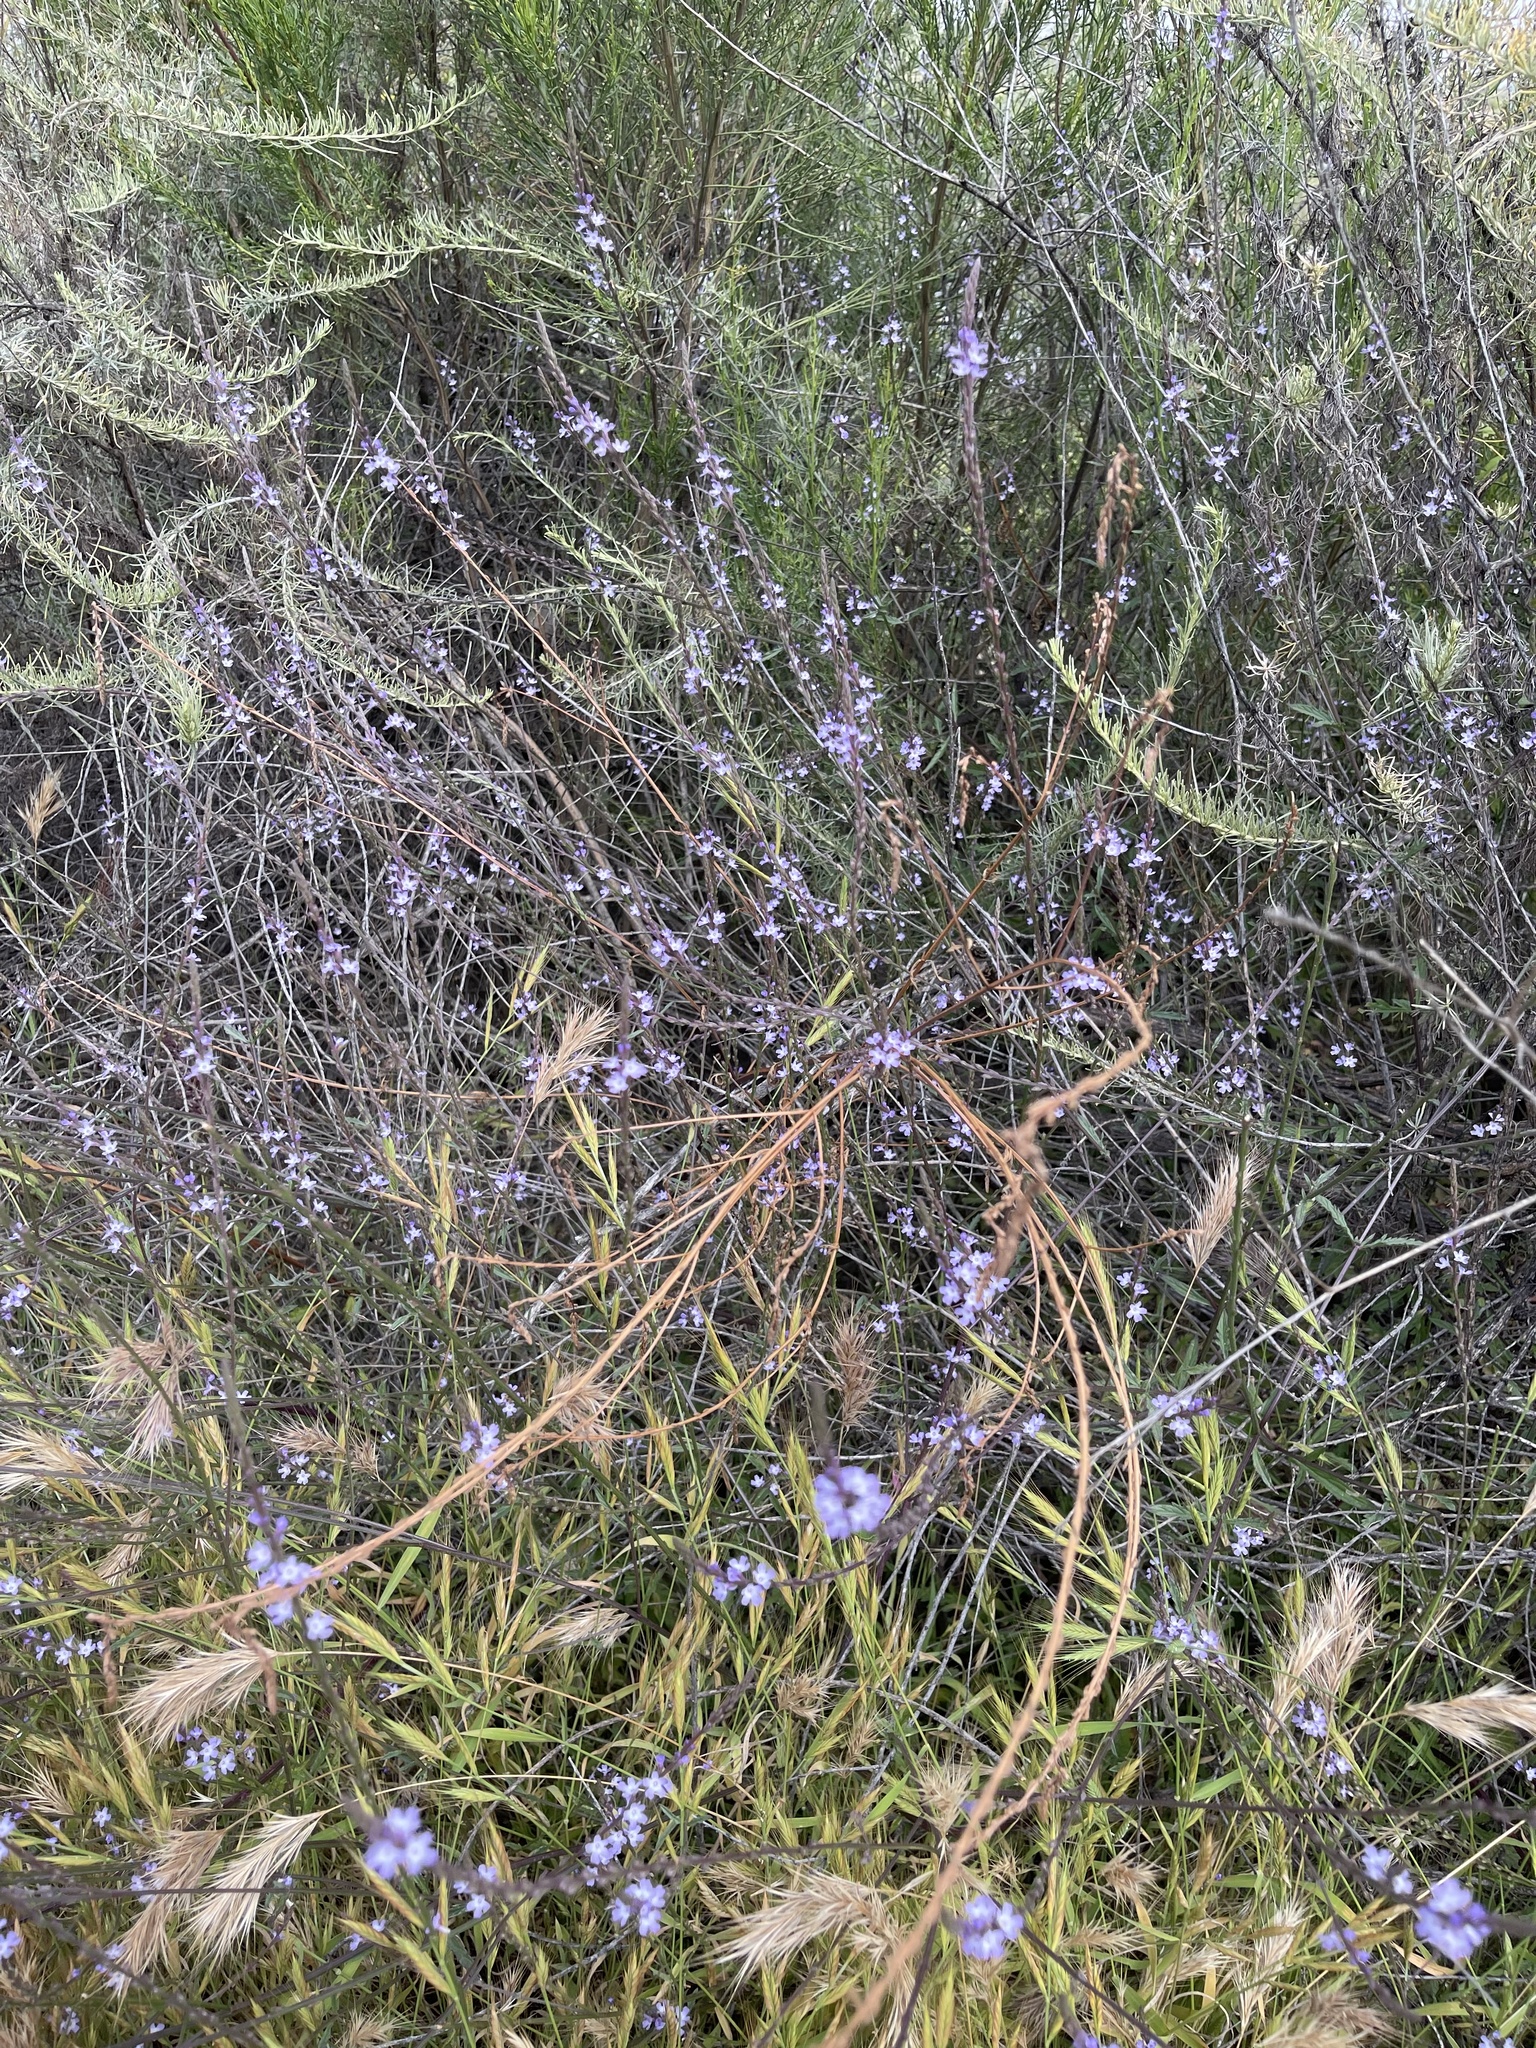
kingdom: Plantae
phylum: Tracheophyta
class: Magnoliopsida
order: Lamiales
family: Verbenaceae
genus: Verbena
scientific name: Verbena menthifolia
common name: Mint-leaf vervain
